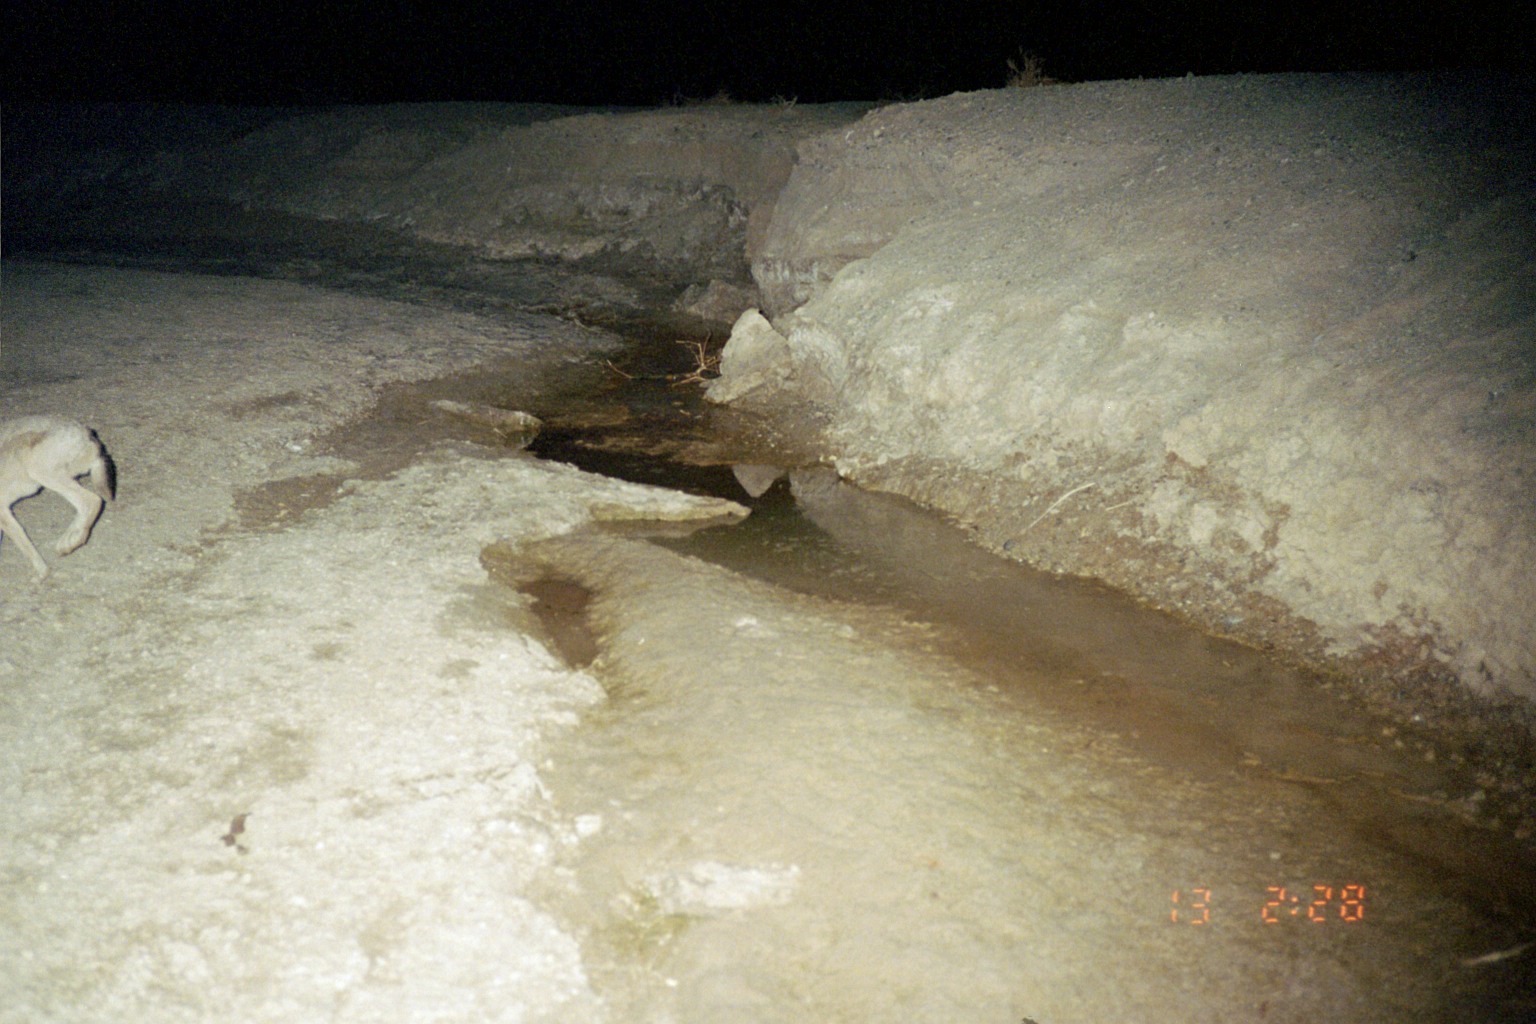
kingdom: Animalia
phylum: Chordata
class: Mammalia
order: Lagomorpha
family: Leporidae
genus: Lepus
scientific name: Lepus californicus
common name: Black-tailed jackrabbit
